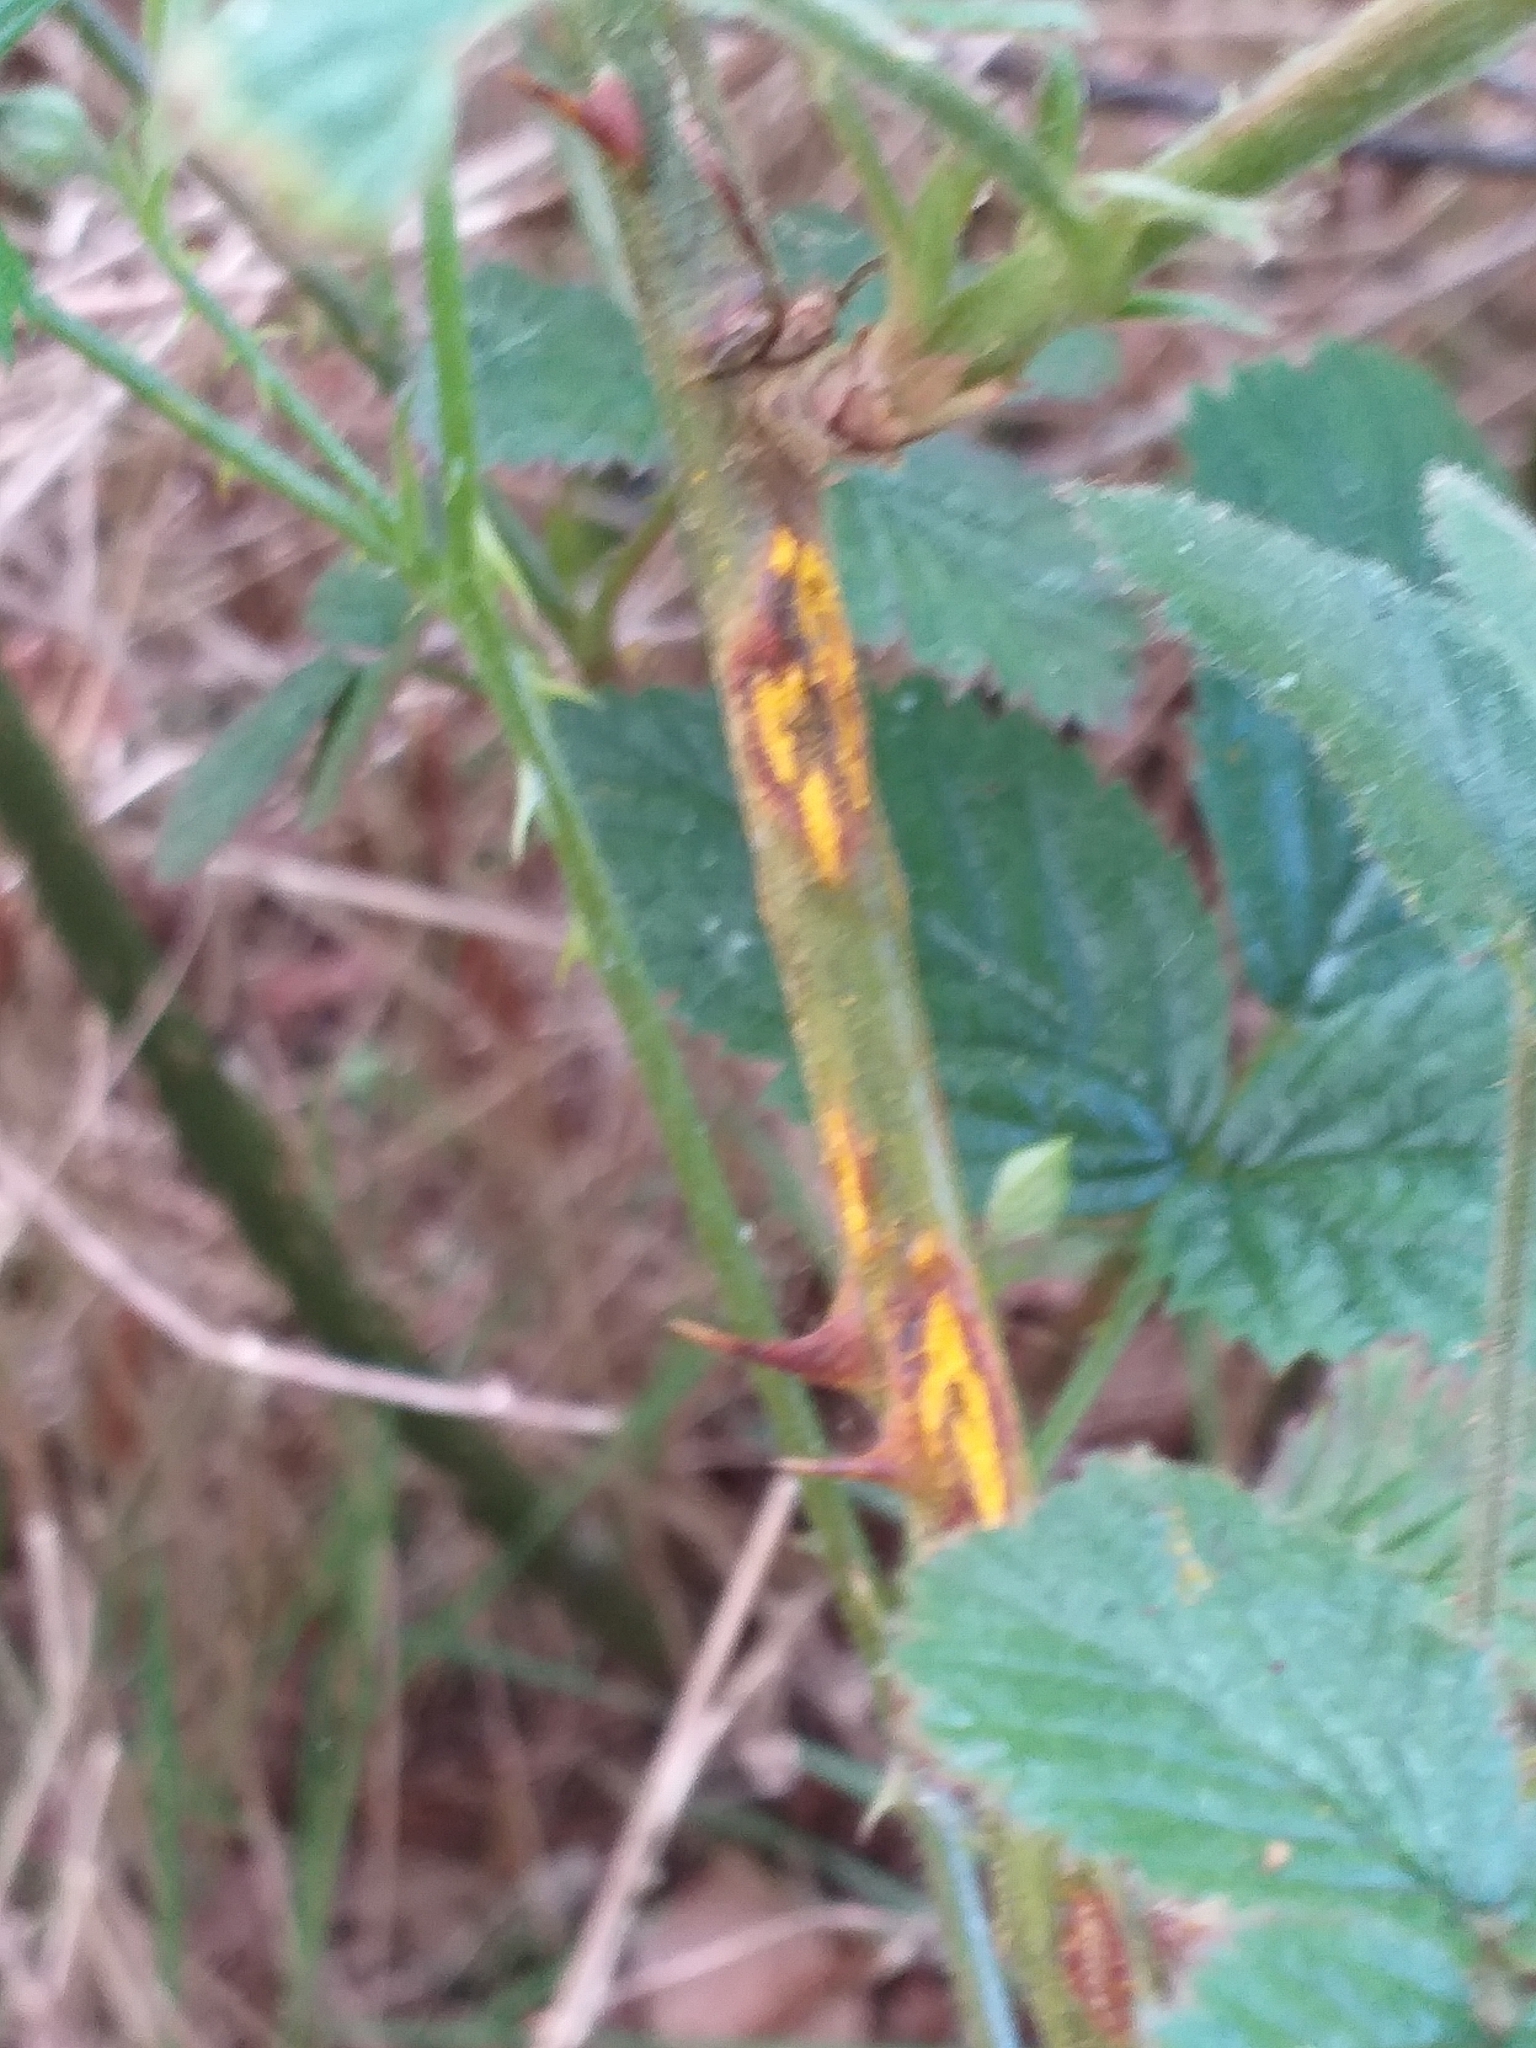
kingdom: Fungi
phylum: Basidiomycota
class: Pucciniomycetes
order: Pucciniales
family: Phragmidiaceae
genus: Kuehneola
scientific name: Kuehneola uredinis
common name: Bramble stem rust
